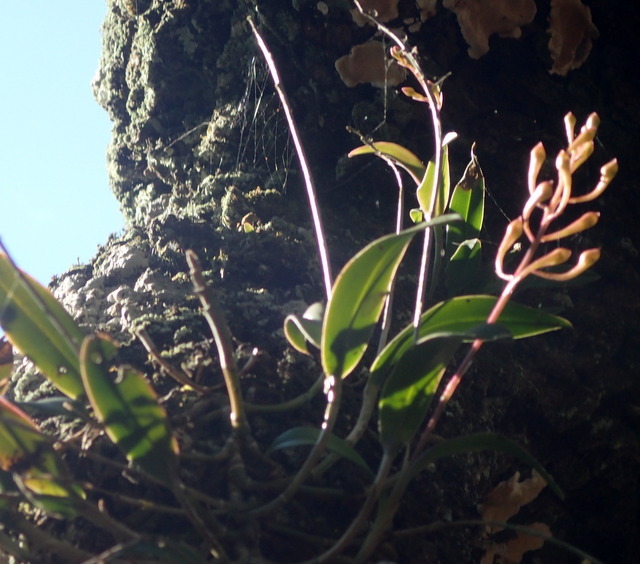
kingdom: Plantae
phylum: Tracheophyta
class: Liliopsida
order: Asparagales
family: Orchidaceae
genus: Epidendrum
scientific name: Epidendrum conopseum
